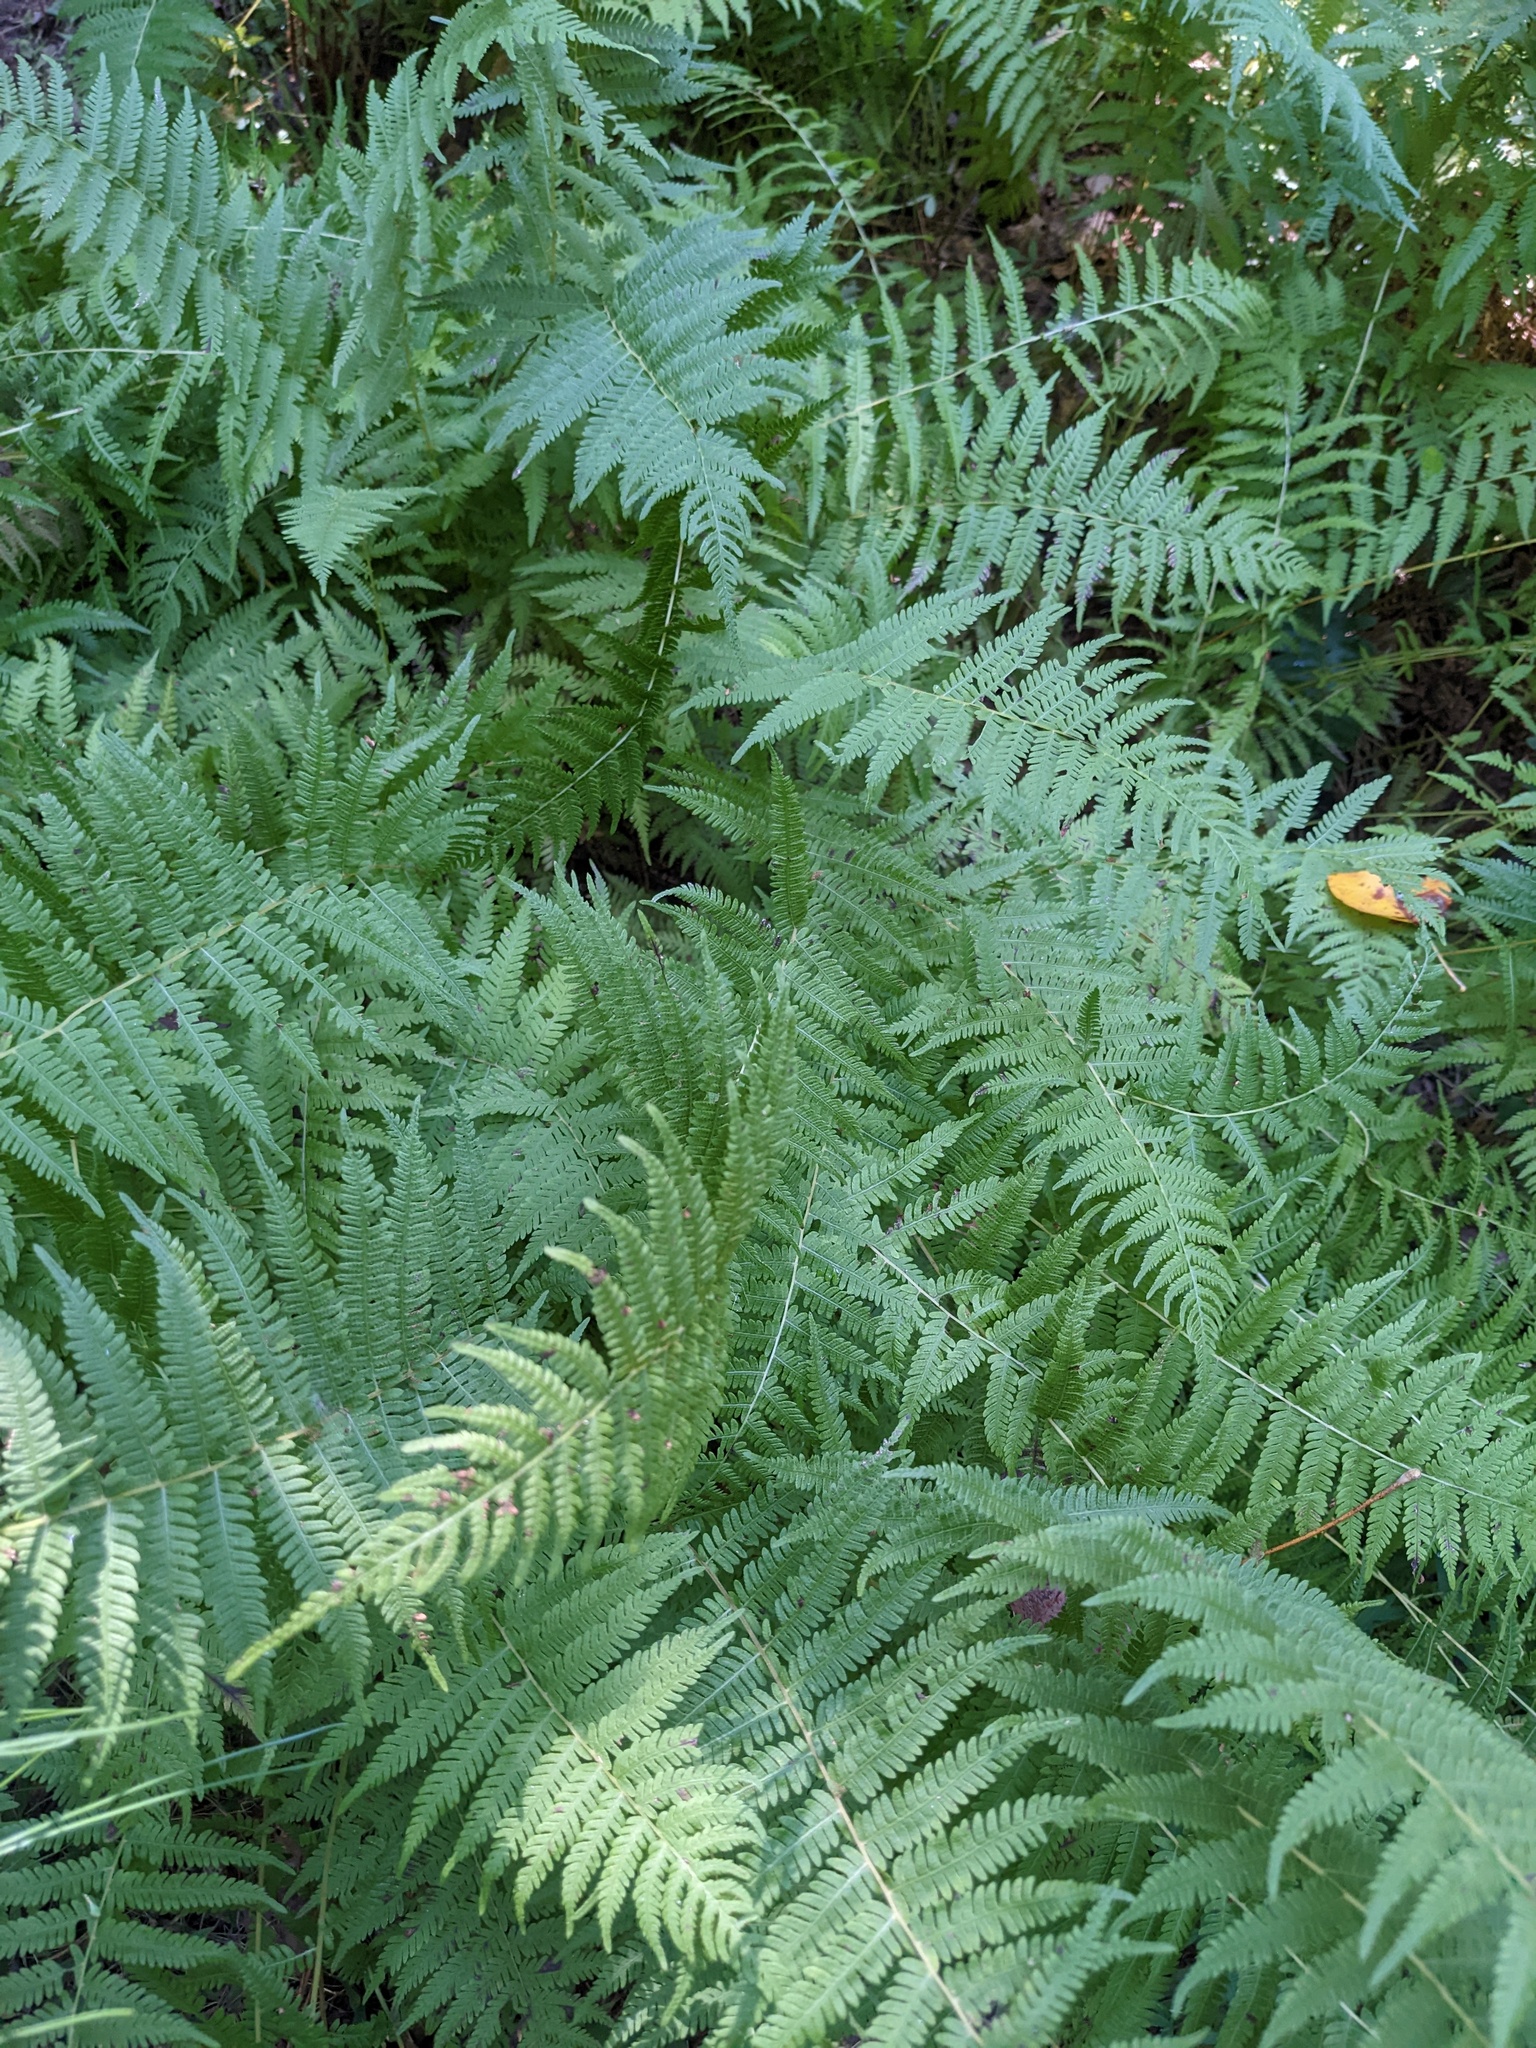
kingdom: Plantae
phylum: Tracheophyta
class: Polypodiopsida
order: Polypodiales
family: Thelypteridaceae
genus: Amauropelta
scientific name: Amauropelta noveboracensis
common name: New york fern
